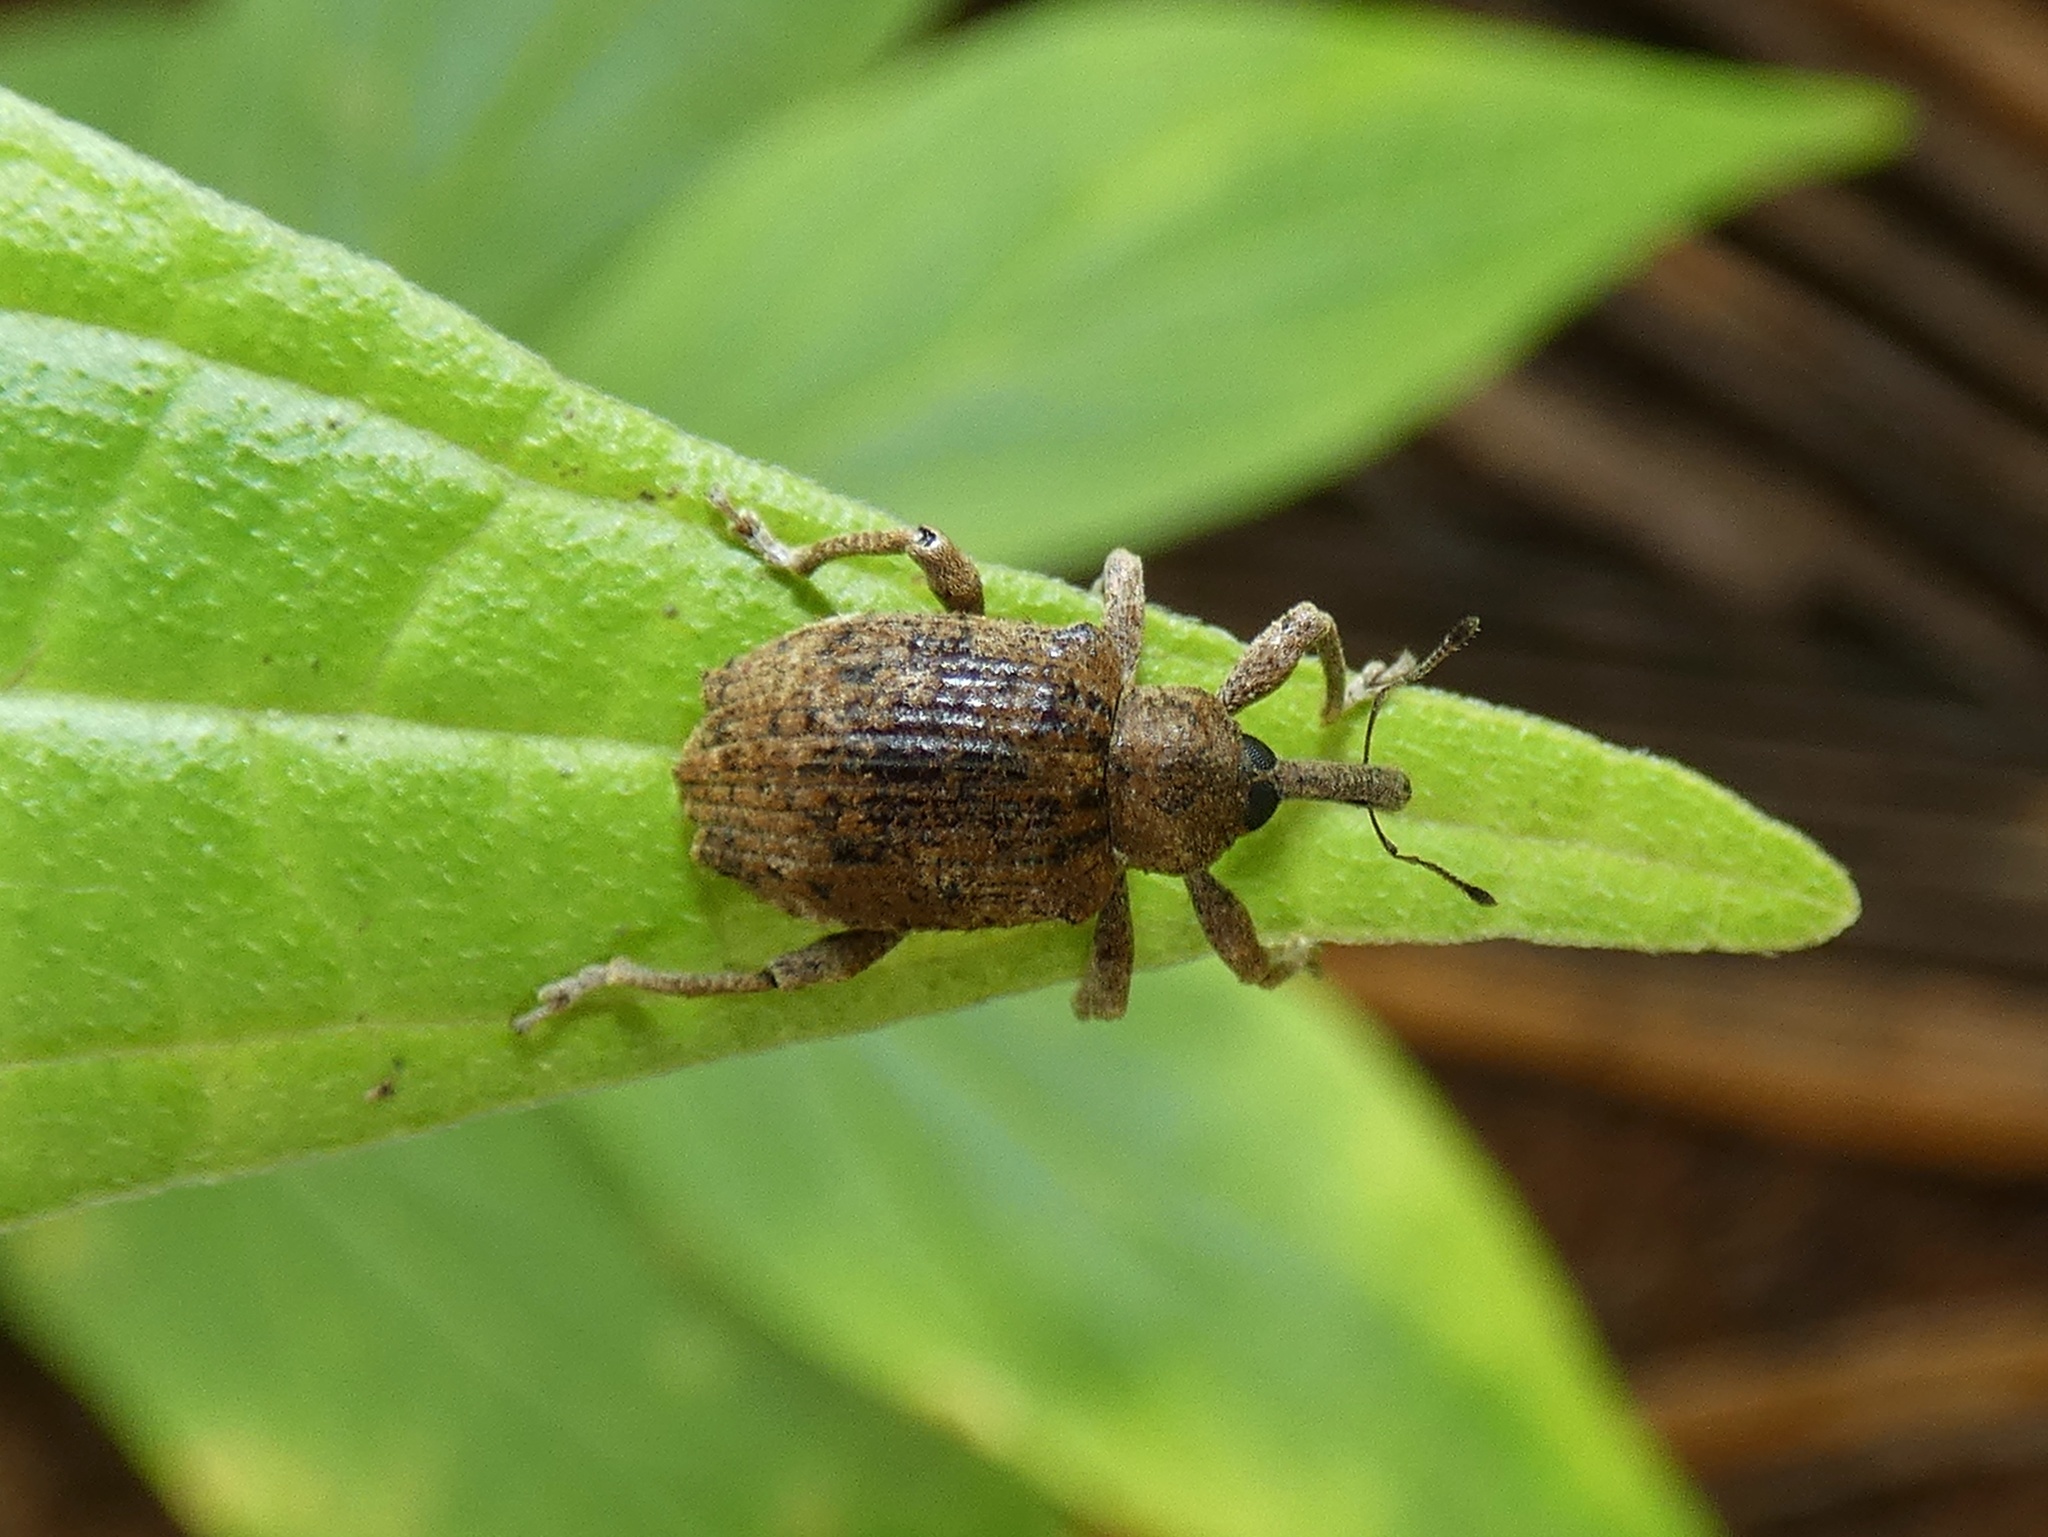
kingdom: Animalia
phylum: Arthropoda
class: Insecta
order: Coleoptera
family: Curculionidae
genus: Phelypera
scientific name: Phelypera
